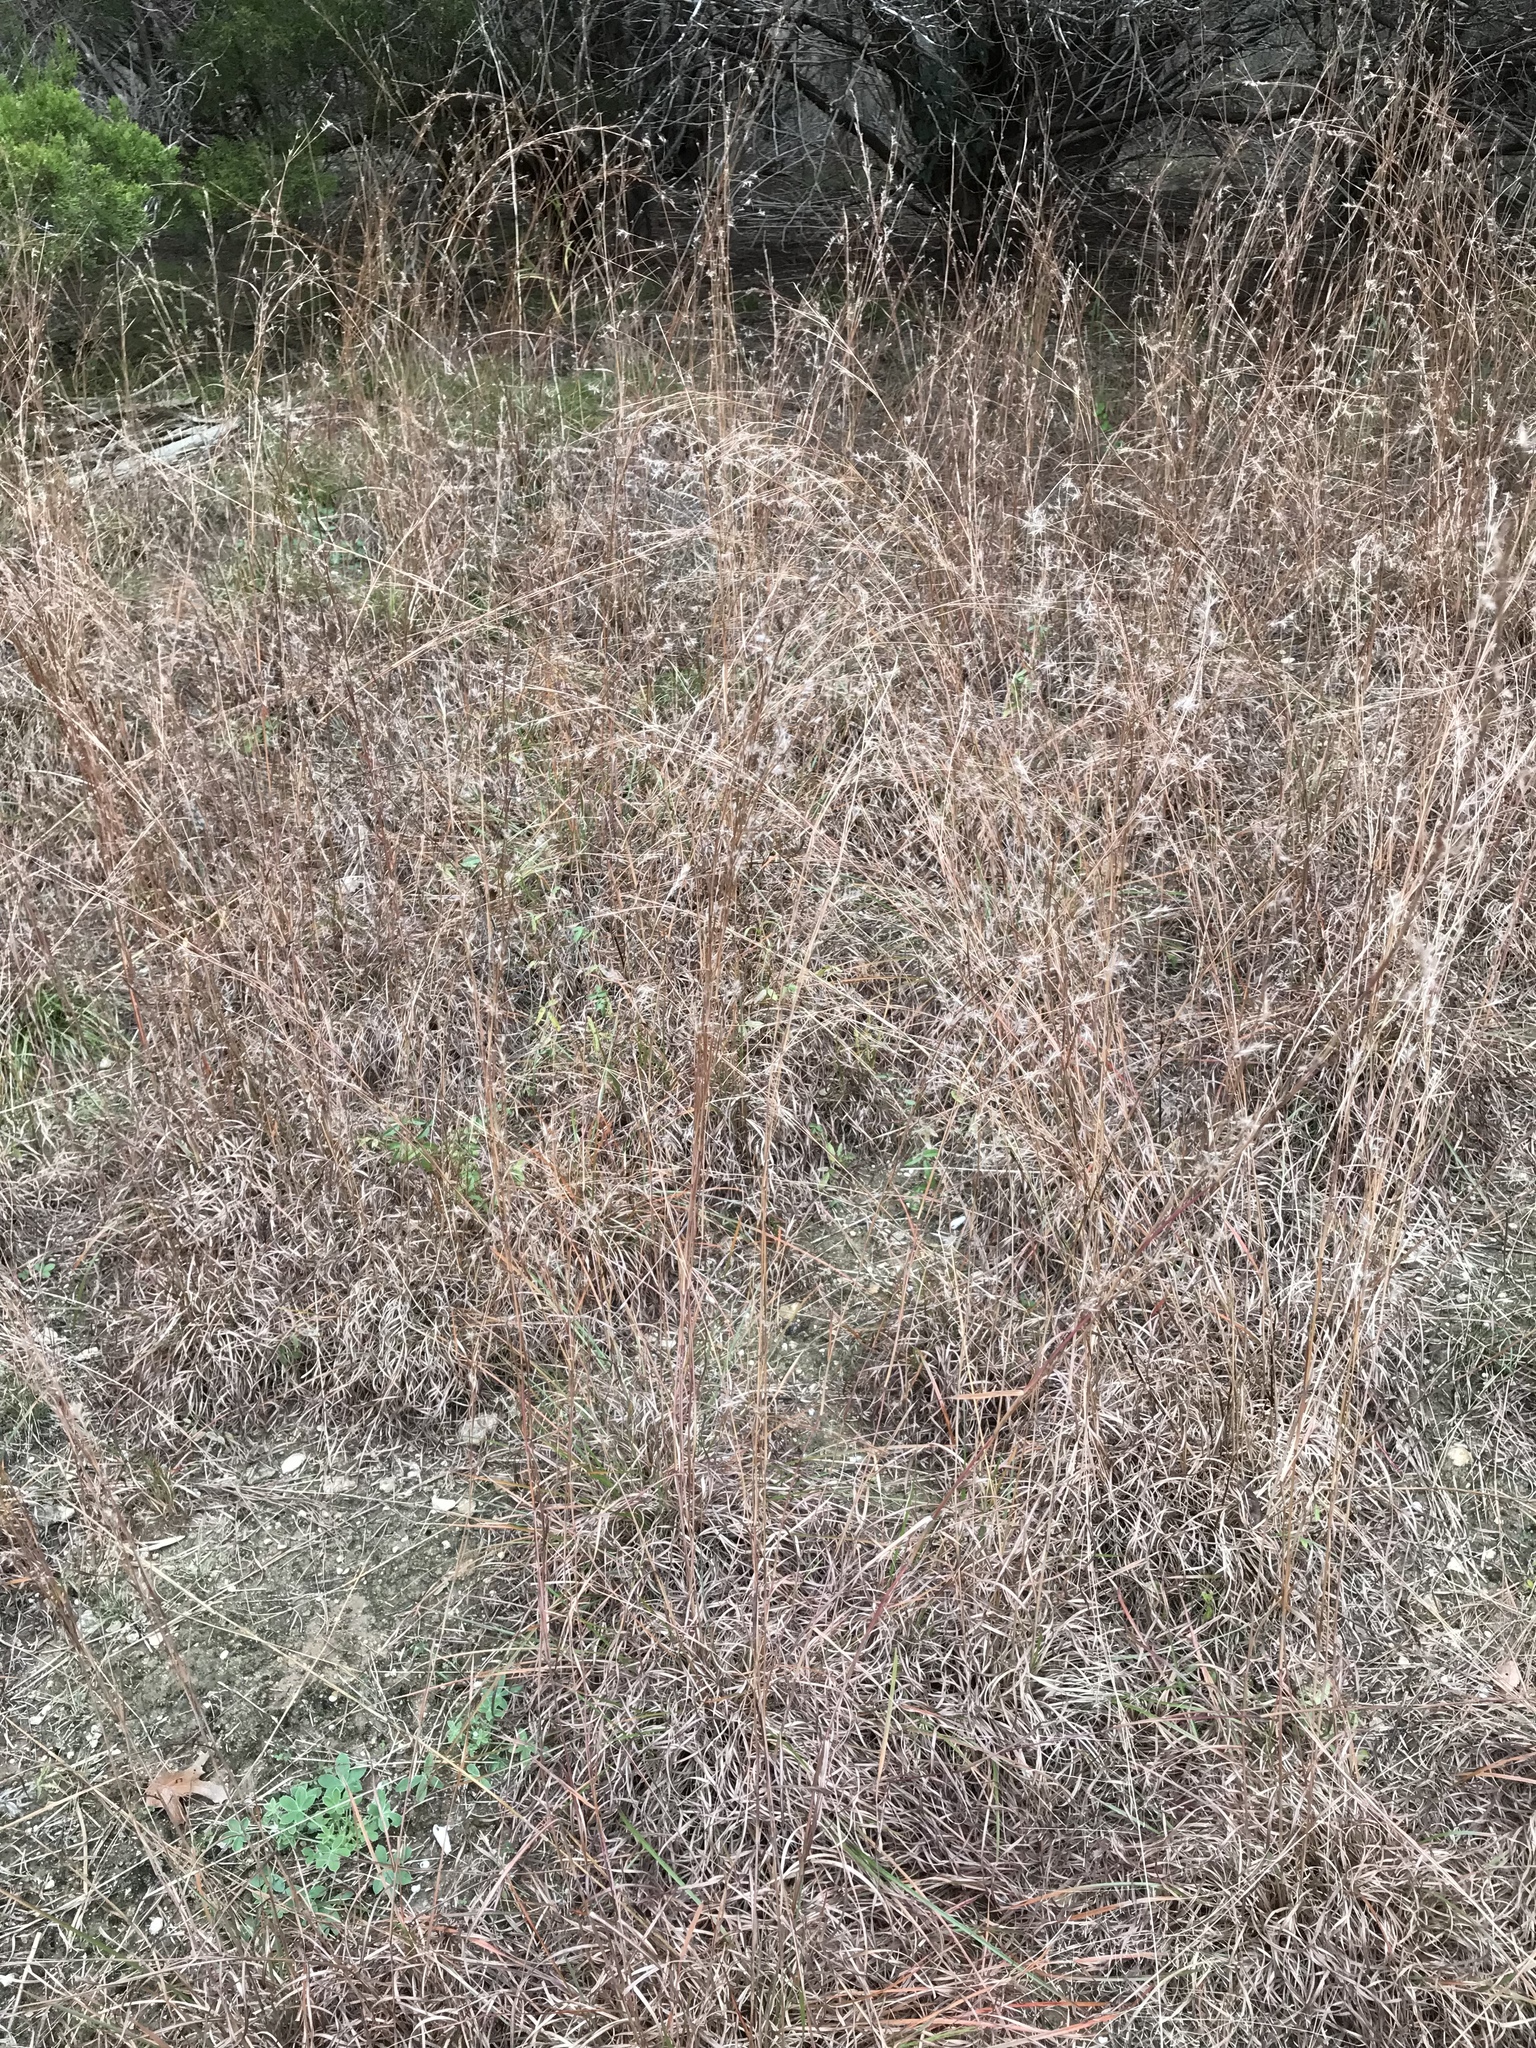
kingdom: Plantae
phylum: Tracheophyta
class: Liliopsida
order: Poales
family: Poaceae
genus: Schizachyrium
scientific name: Schizachyrium scoparium
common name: Little bluestem
